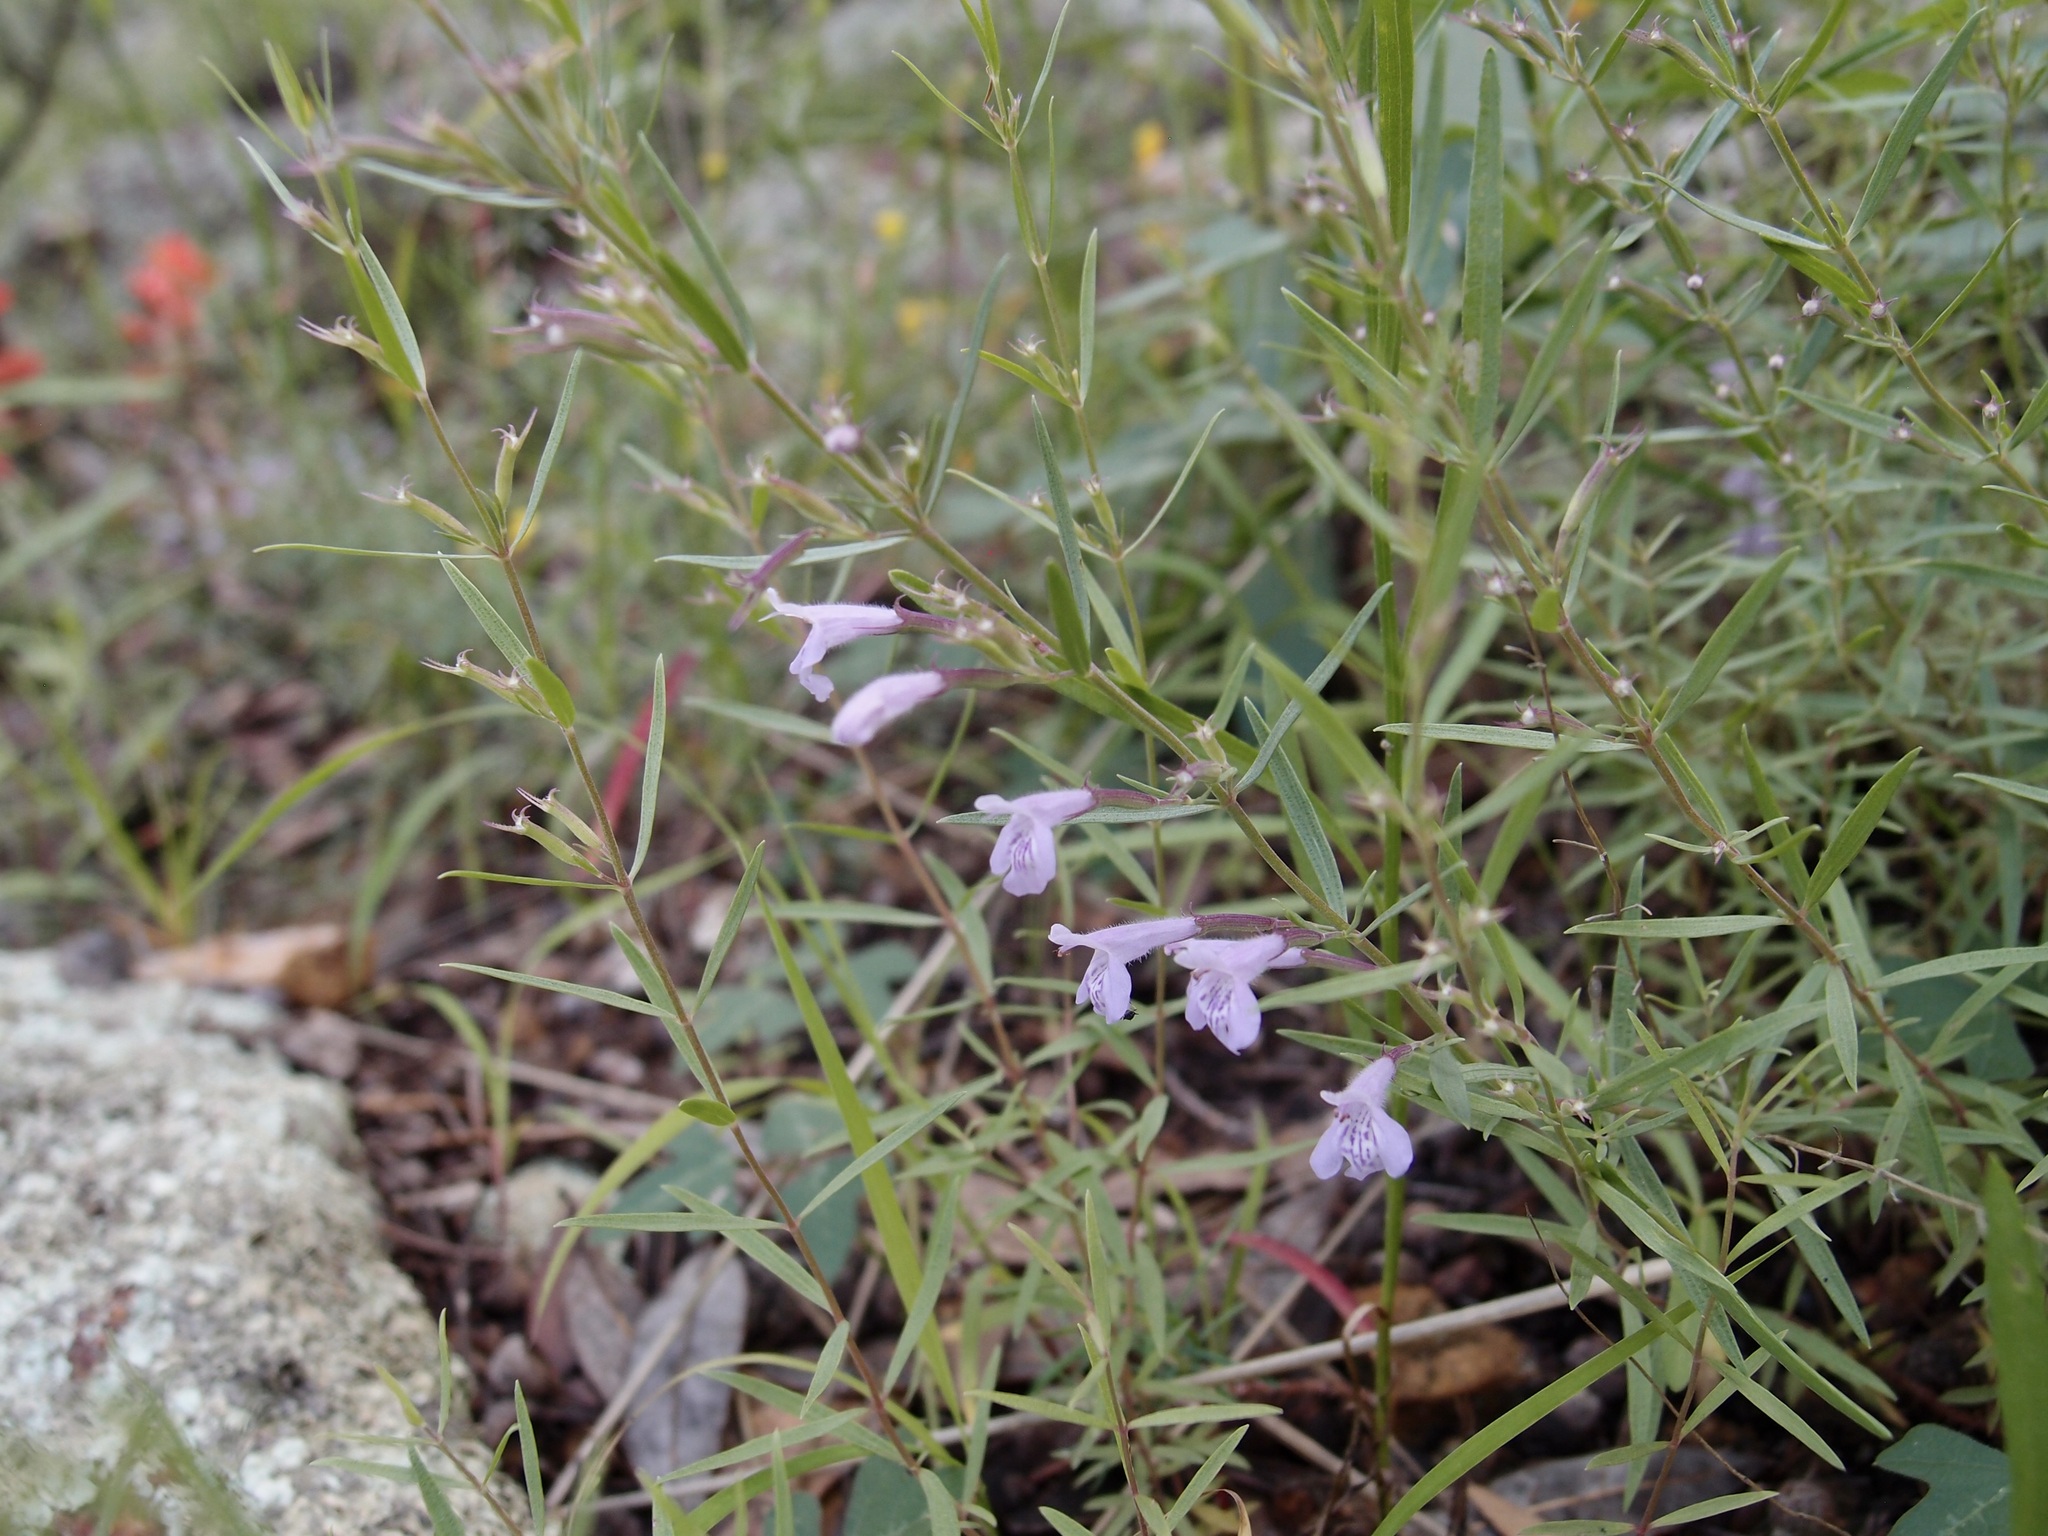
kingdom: Plantae
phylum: Tracheophyta
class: Magnoliopsida
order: Lamiales
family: Lamiaceae
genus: Hedeoma
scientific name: Hedeoma hyssopifolia
